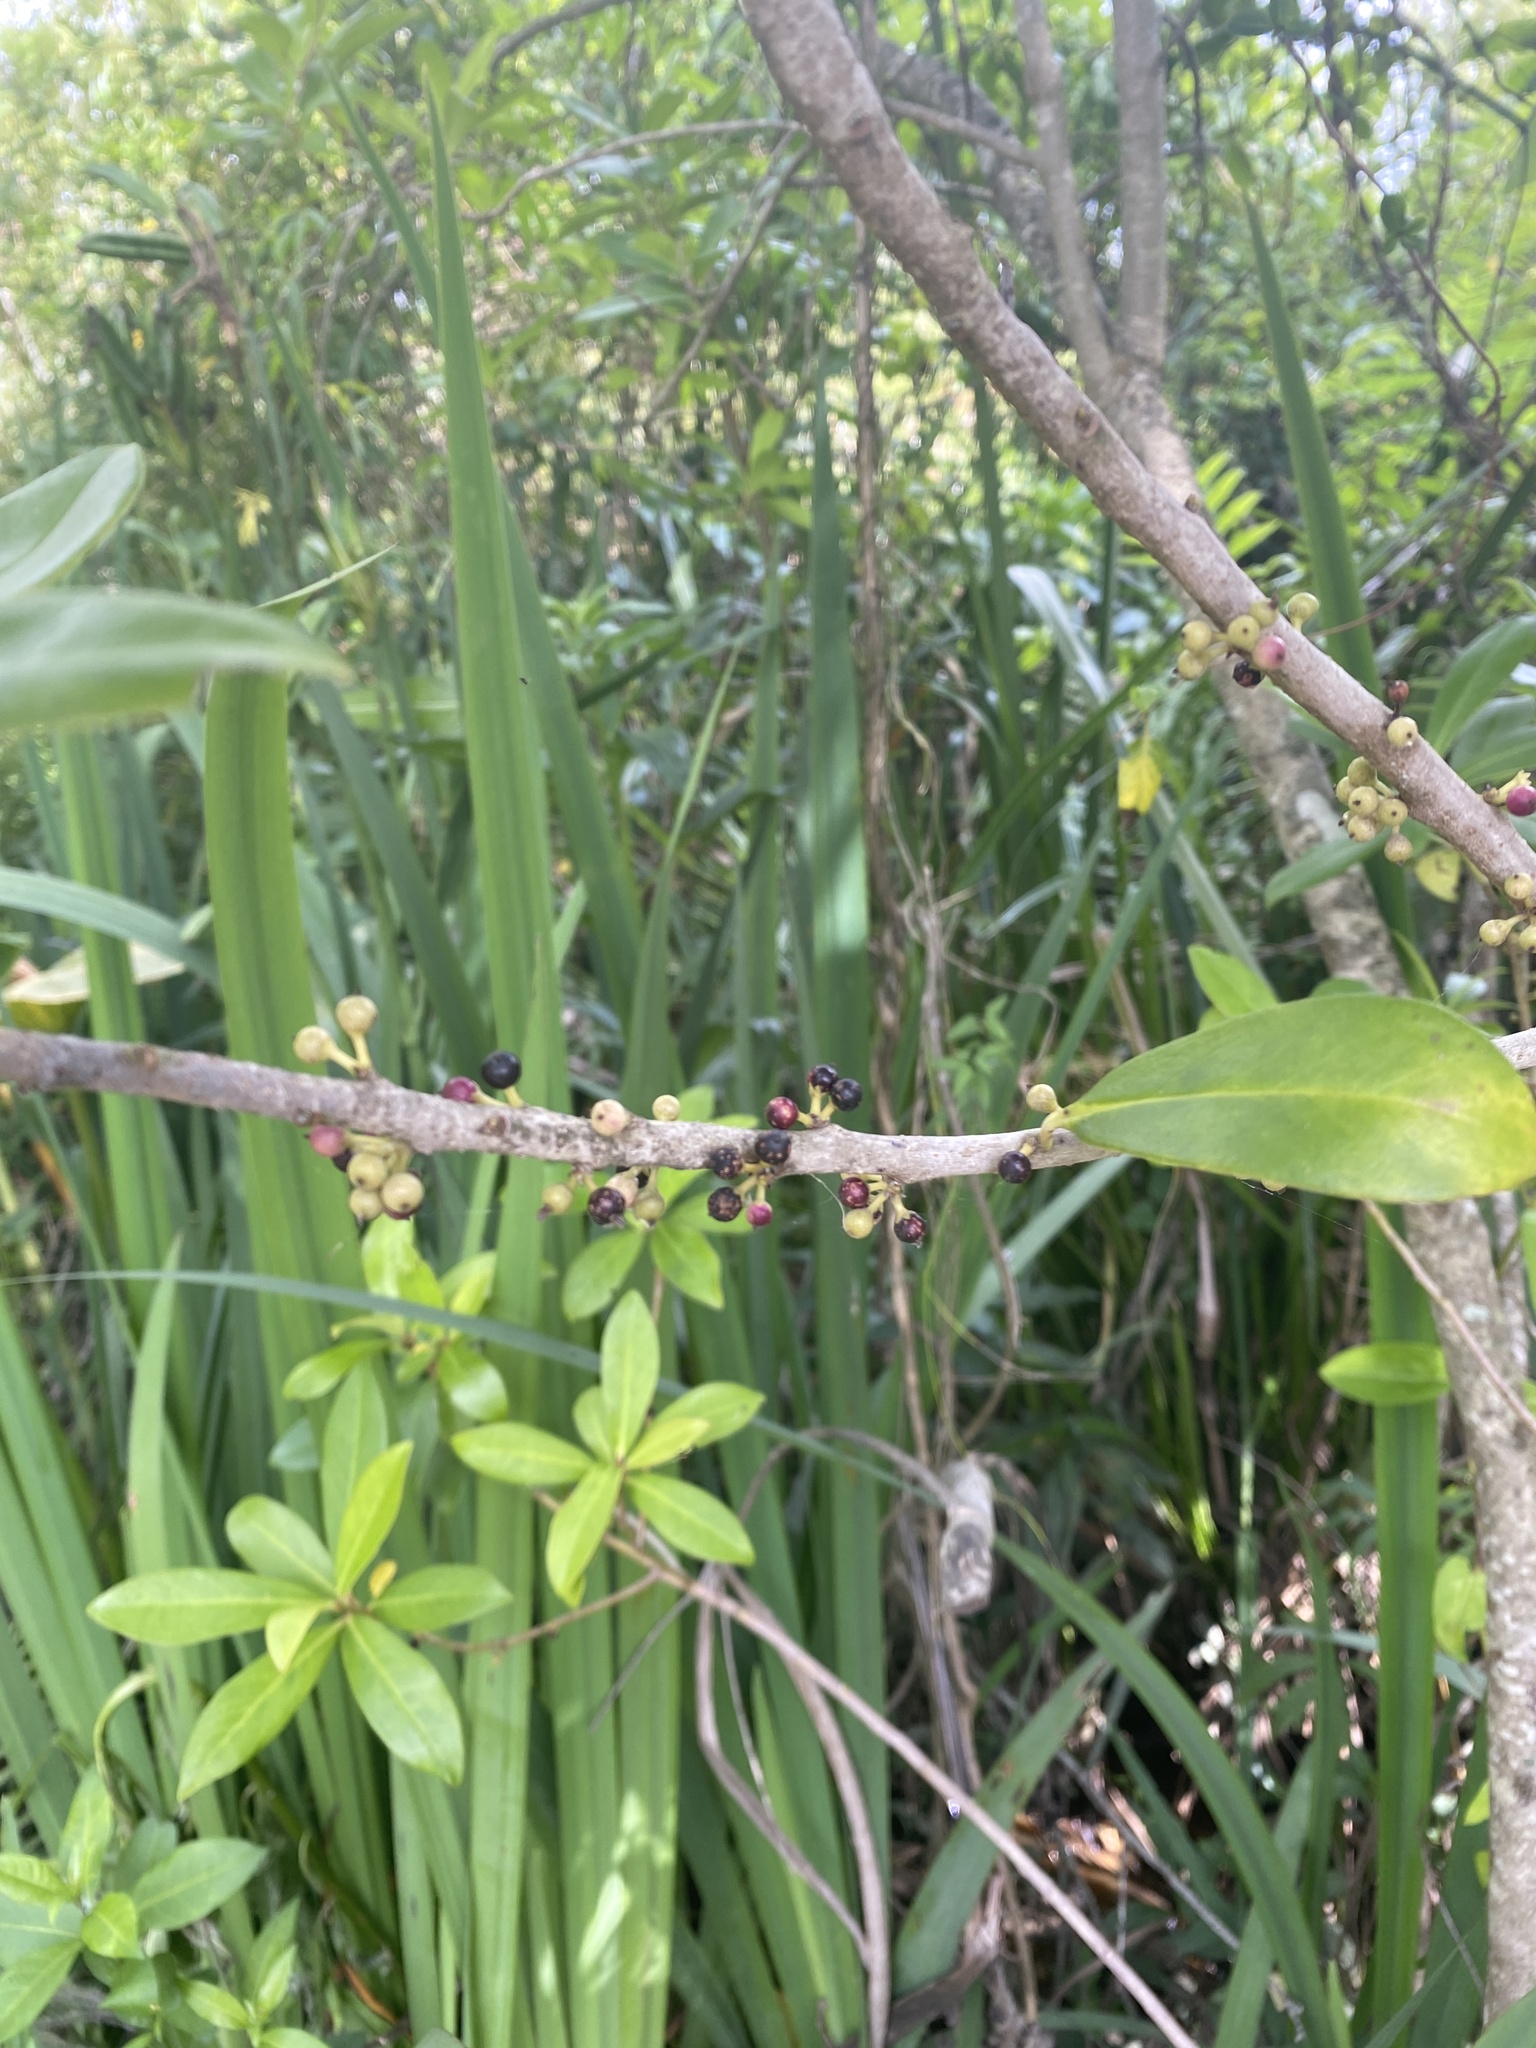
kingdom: Plantae
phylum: Tracheophyta
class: Magnoliopsida
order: Ericales
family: Primulaceae
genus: Myrsine
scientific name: Myrsine laetevirens
